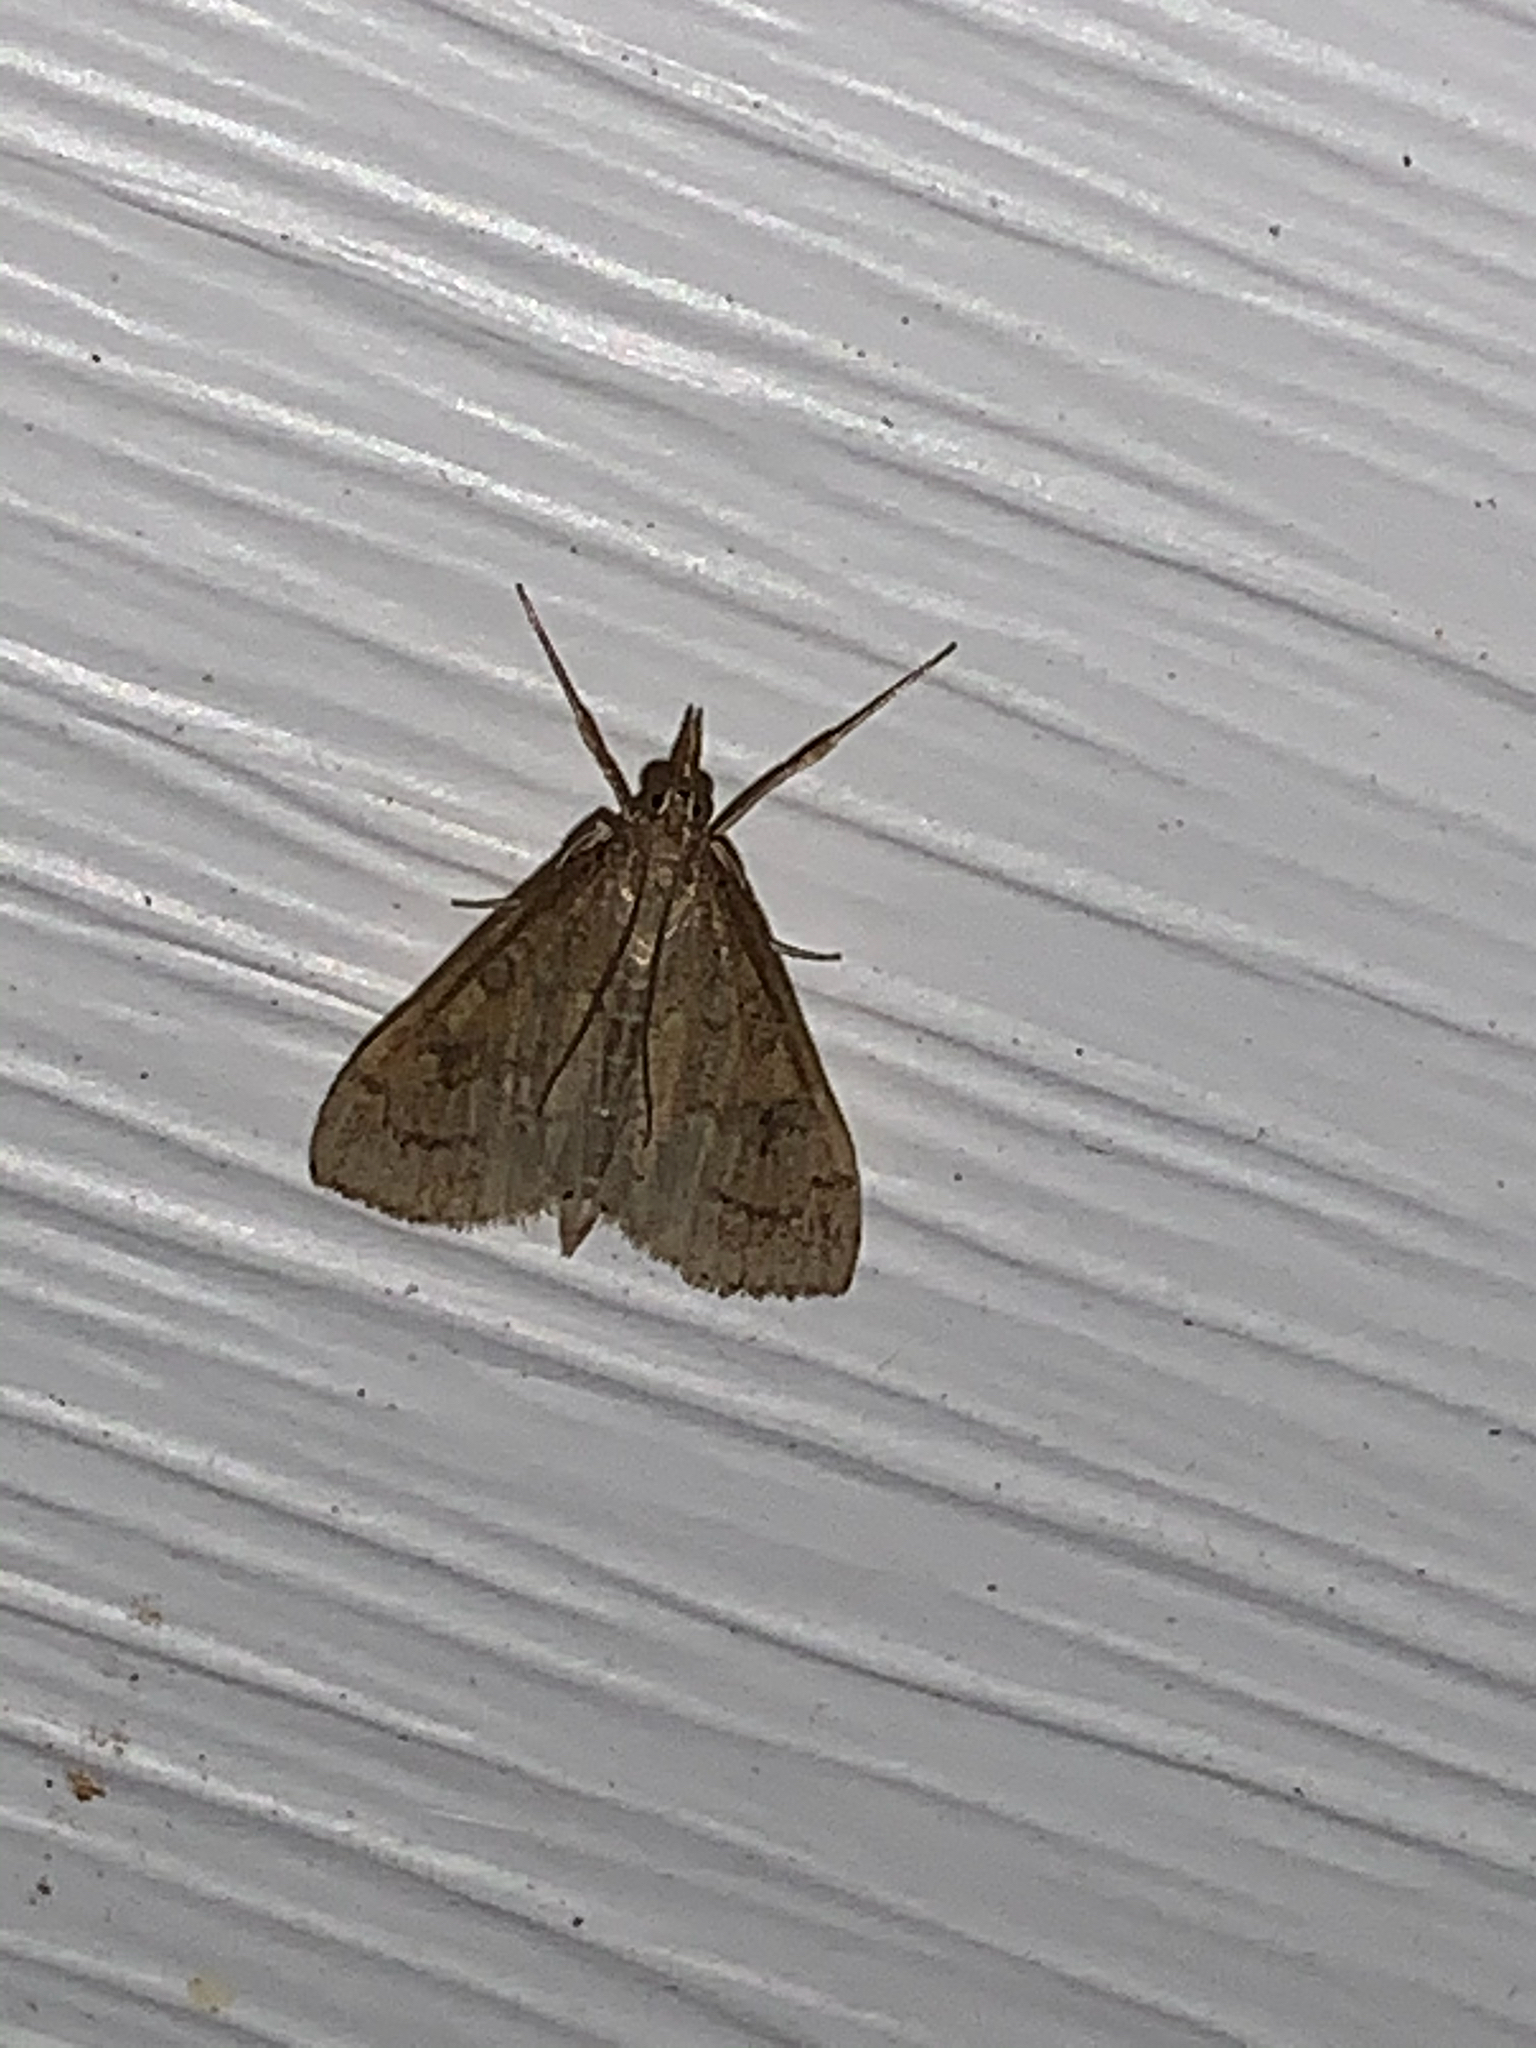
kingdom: Animalia
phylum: Arthropoda
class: Insecta
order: Lepidoptera
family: Crambidae
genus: Udea
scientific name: Udea rubigalis
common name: Celery leaftier moth
